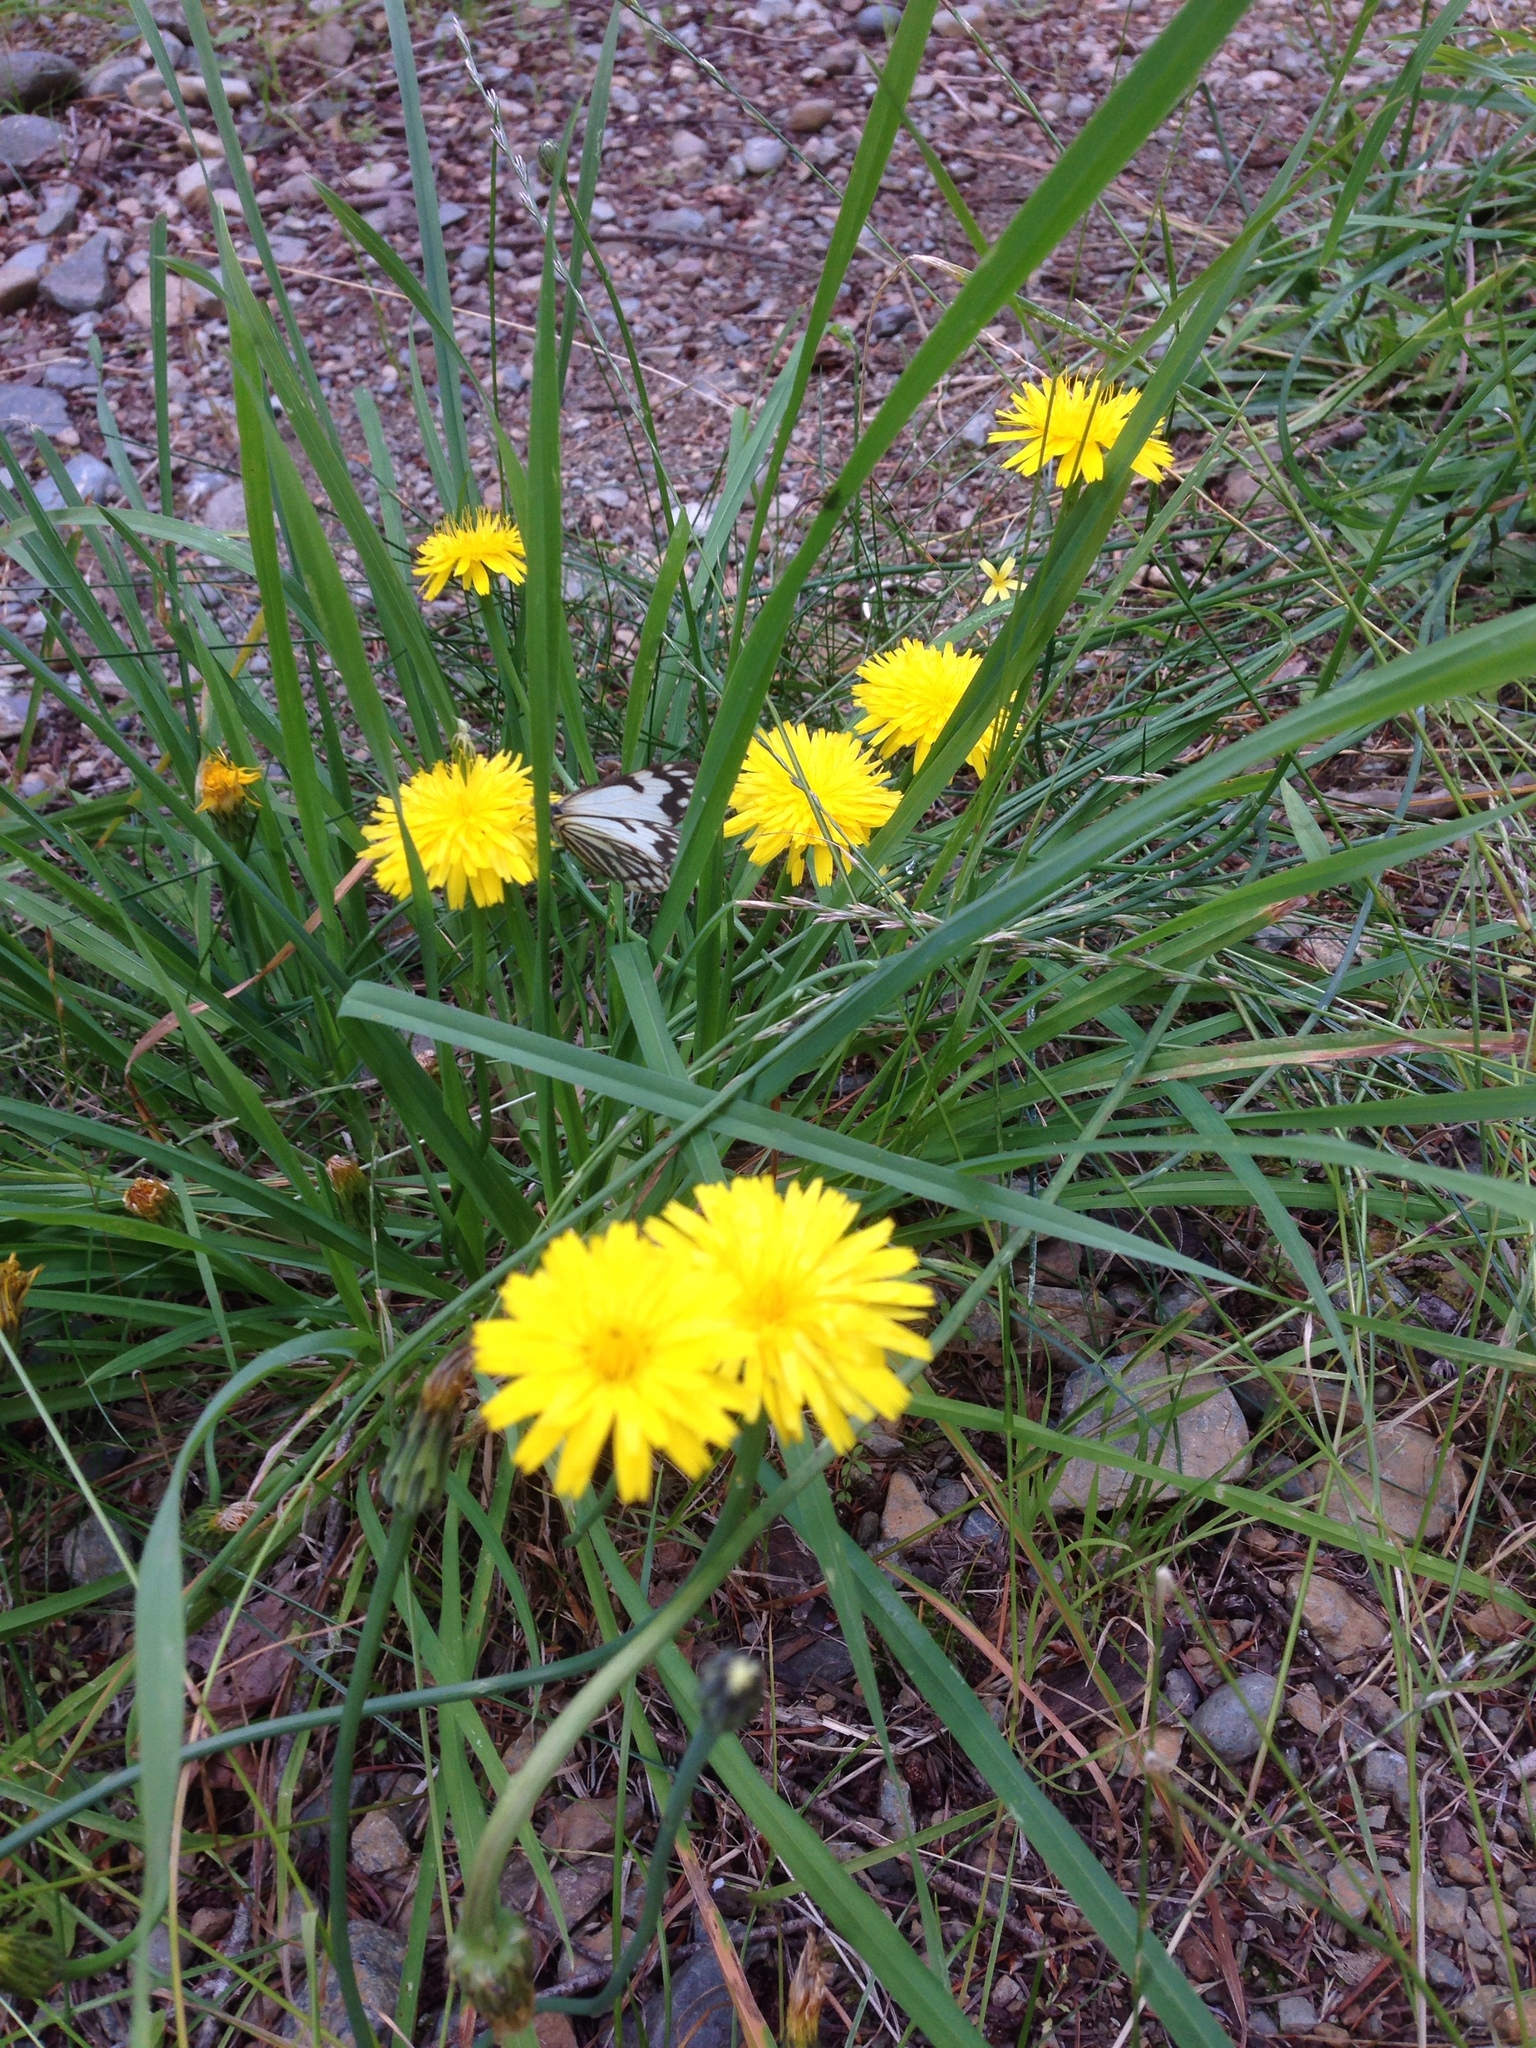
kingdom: Animalia
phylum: Arthropoda
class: Insecta
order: Lepidoptera
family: Pieridae
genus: Neophasia
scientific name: Neophasia menapia
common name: Pine white
